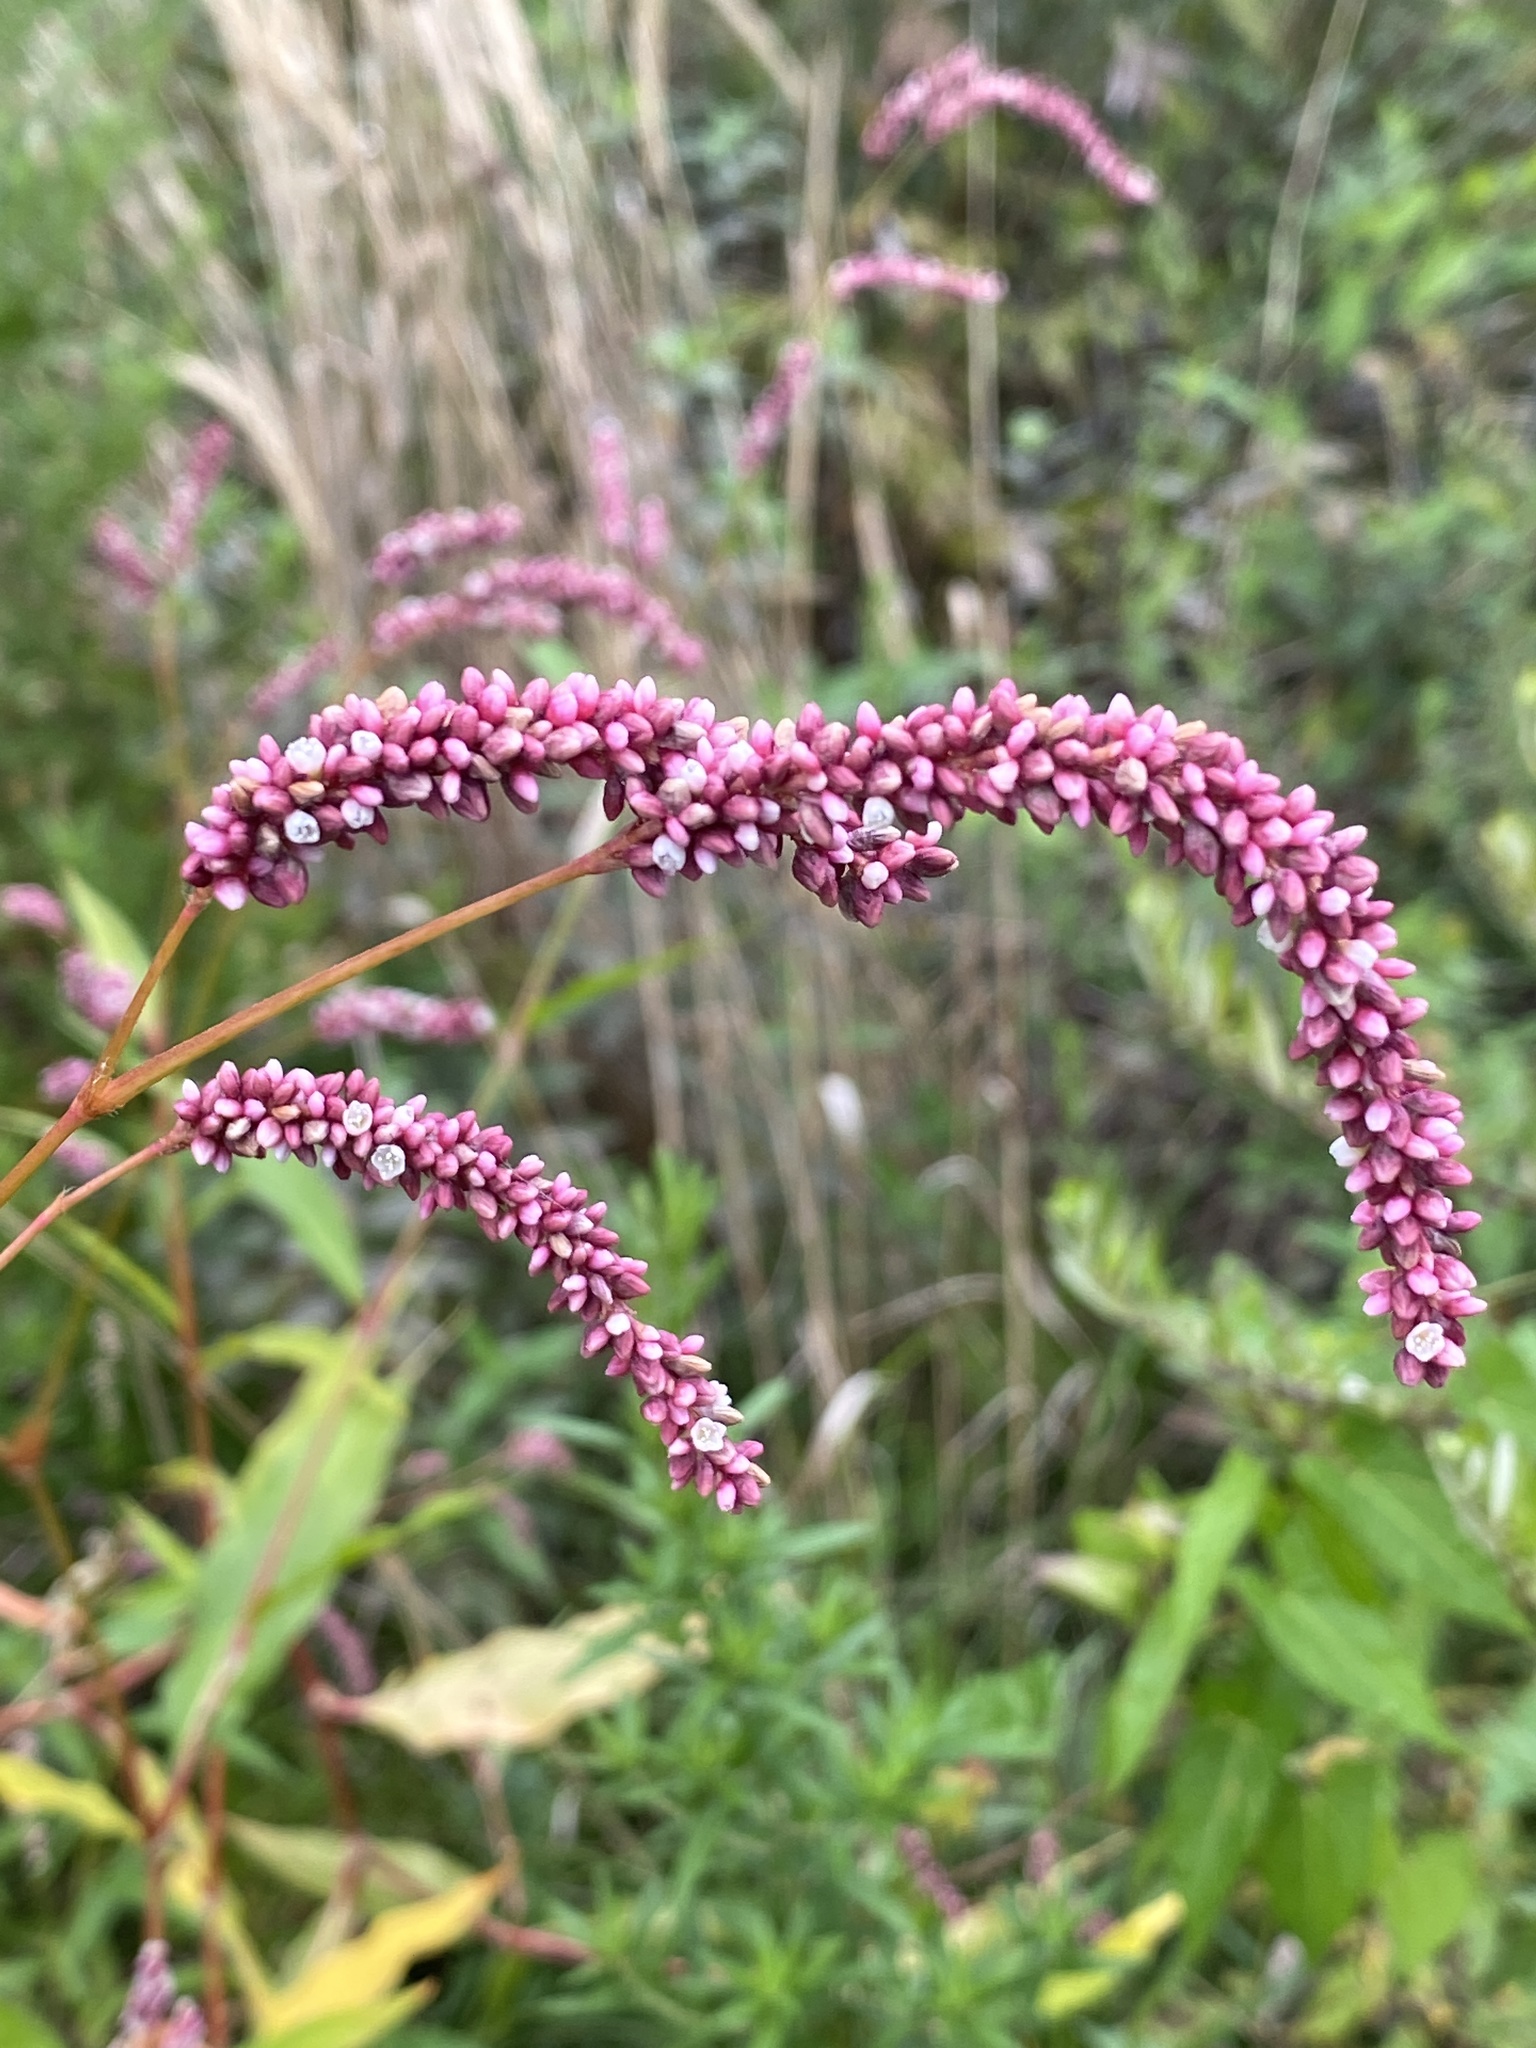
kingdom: Plantae
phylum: Tracheophyta
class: Magnoliopsida
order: Caryophyllales
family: Polygonaceae
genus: Persicaria
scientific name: Persicaria extremiorientalis
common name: Far-eastern smartweed
